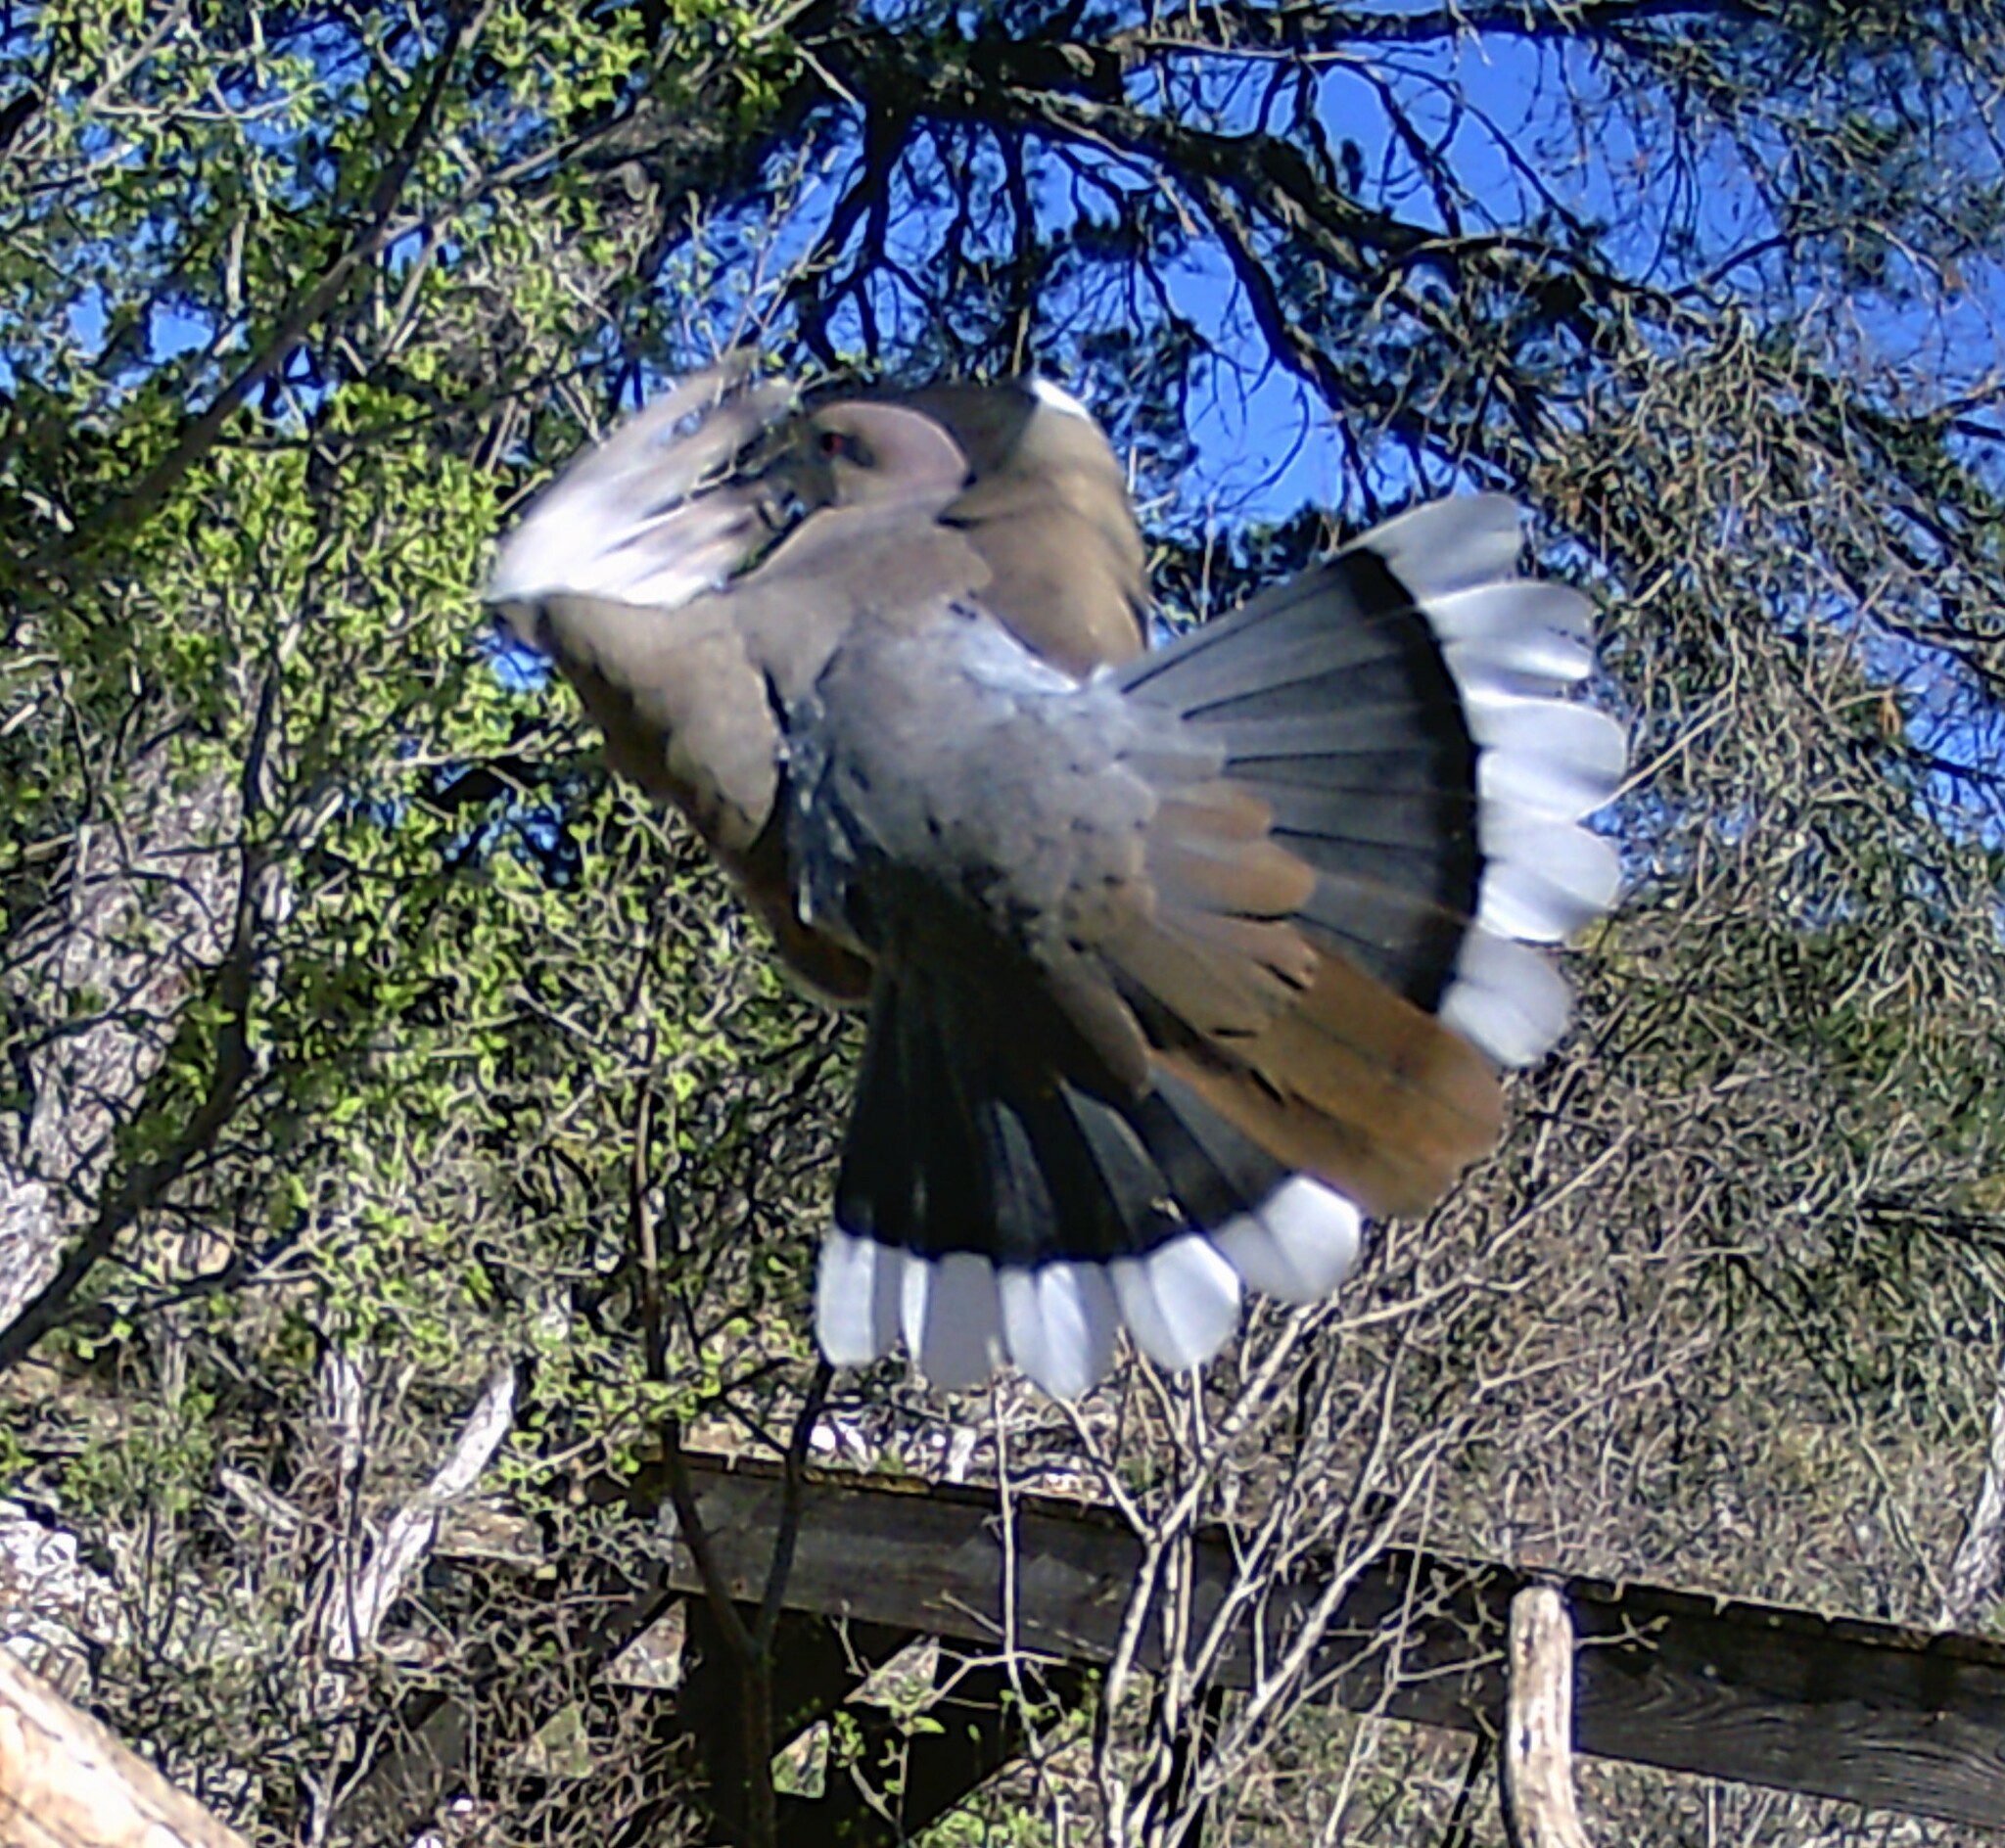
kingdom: Animalia
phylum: Chordata
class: Aves
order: Columbiformes
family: Columbidae
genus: Zenaida
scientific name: Zenaida asiatica
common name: White-winged dove
